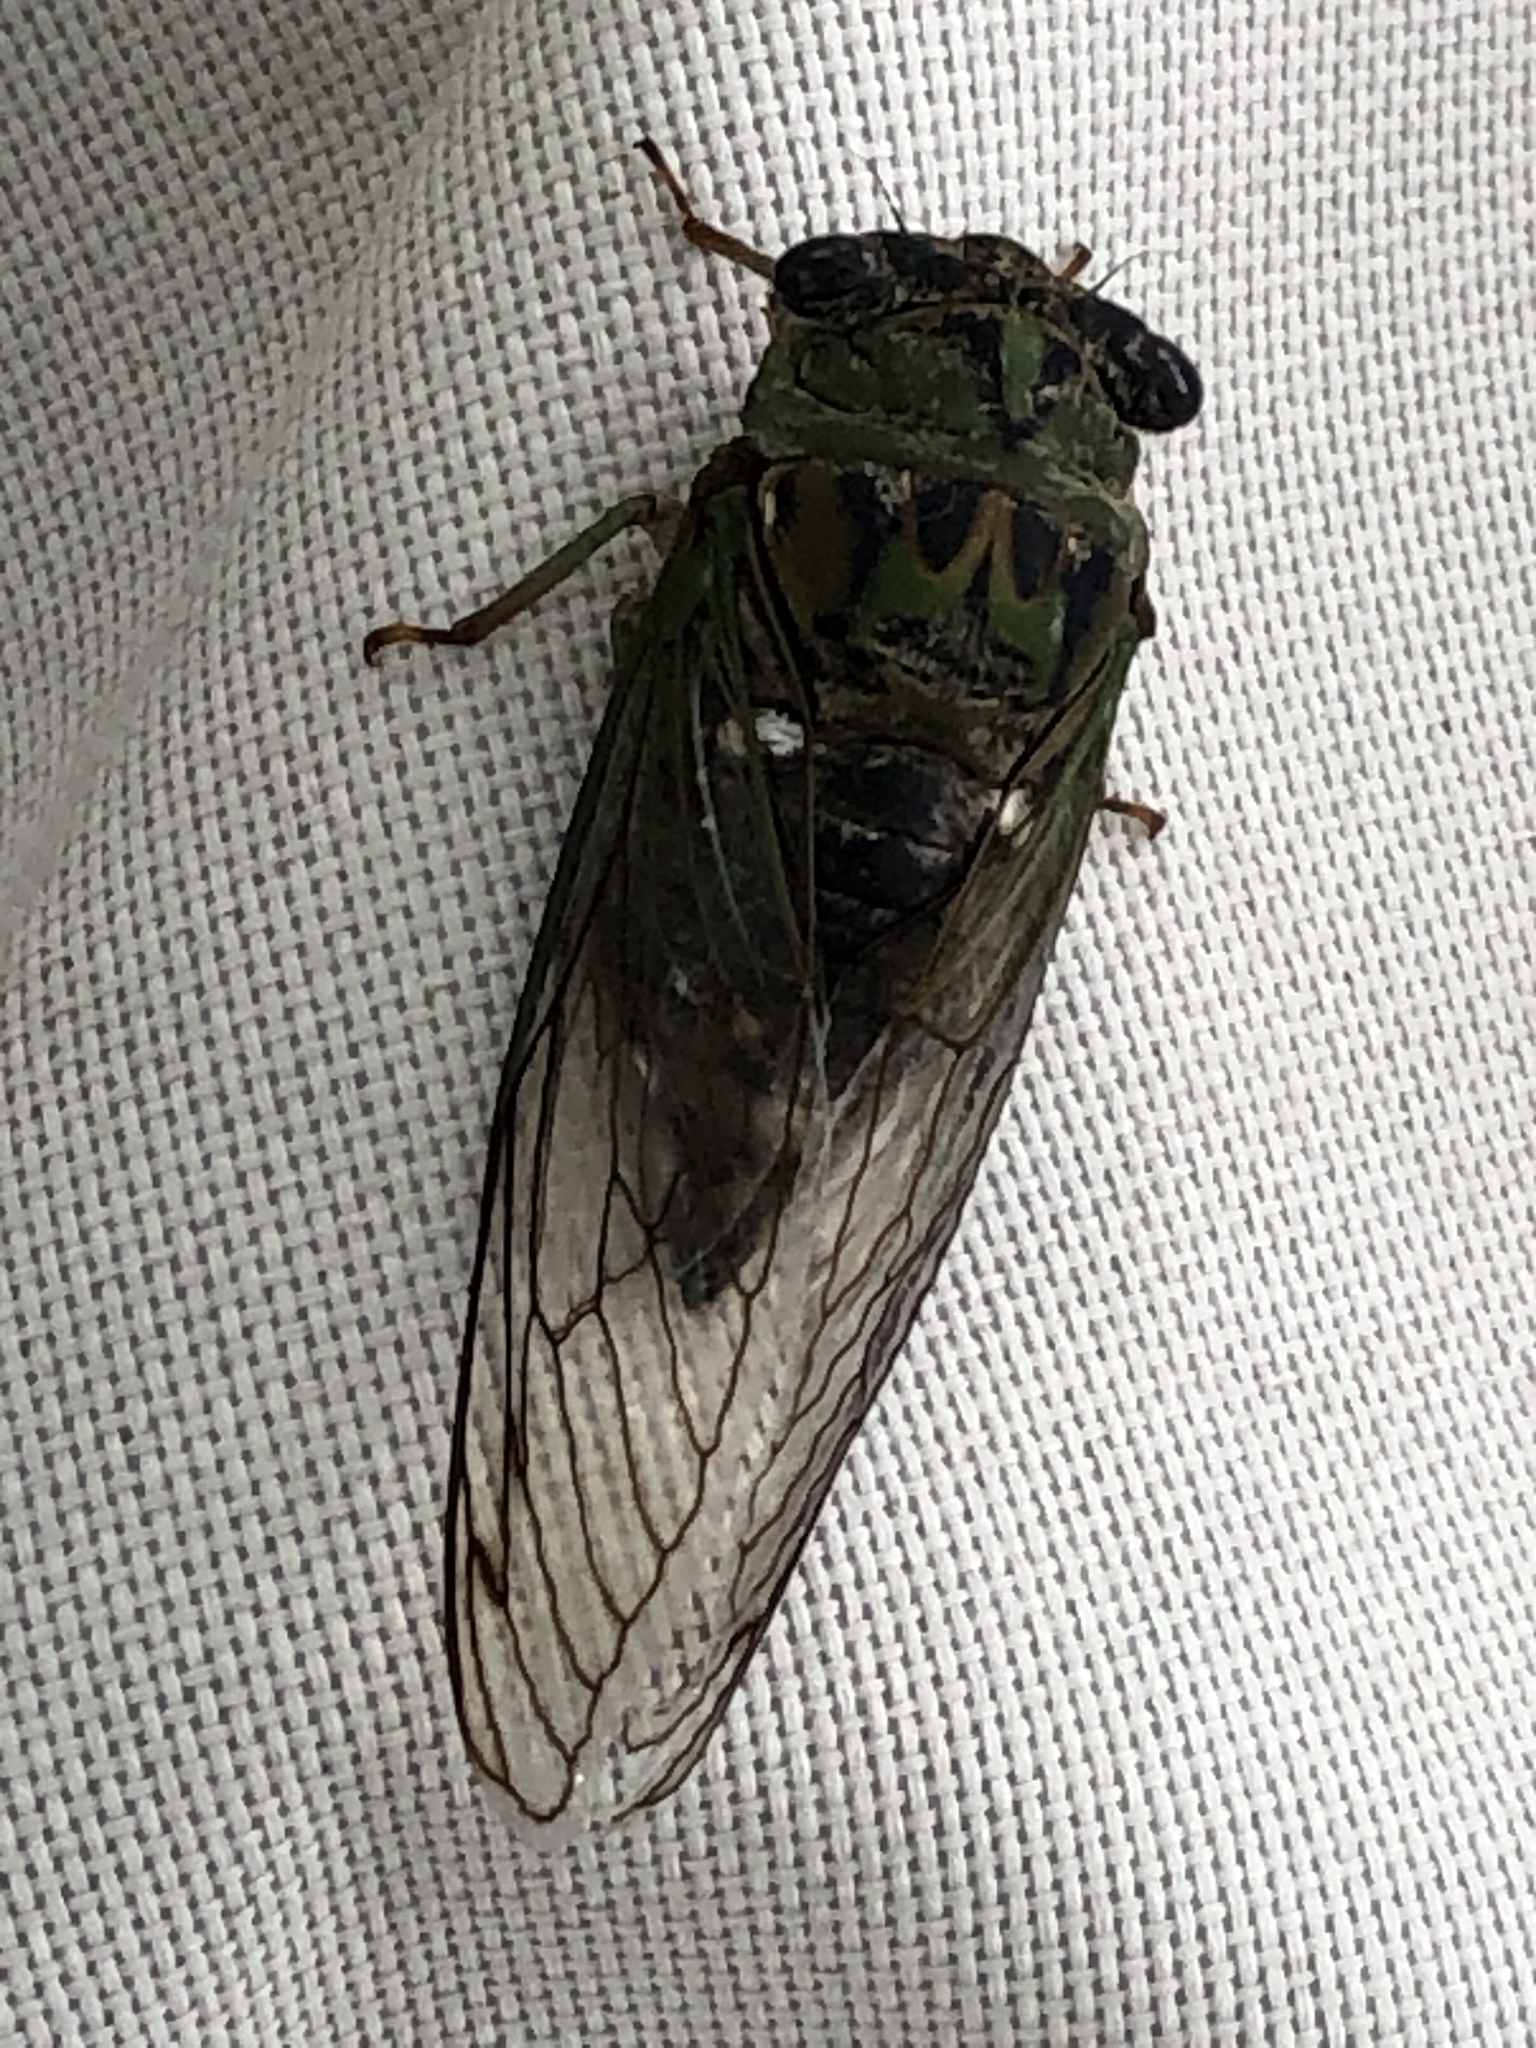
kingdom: Animalia
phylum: Arthropoda
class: Insecta
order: Hemiptera
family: Cicadidae
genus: Neotibicen
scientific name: Neotibicen pruinosus
